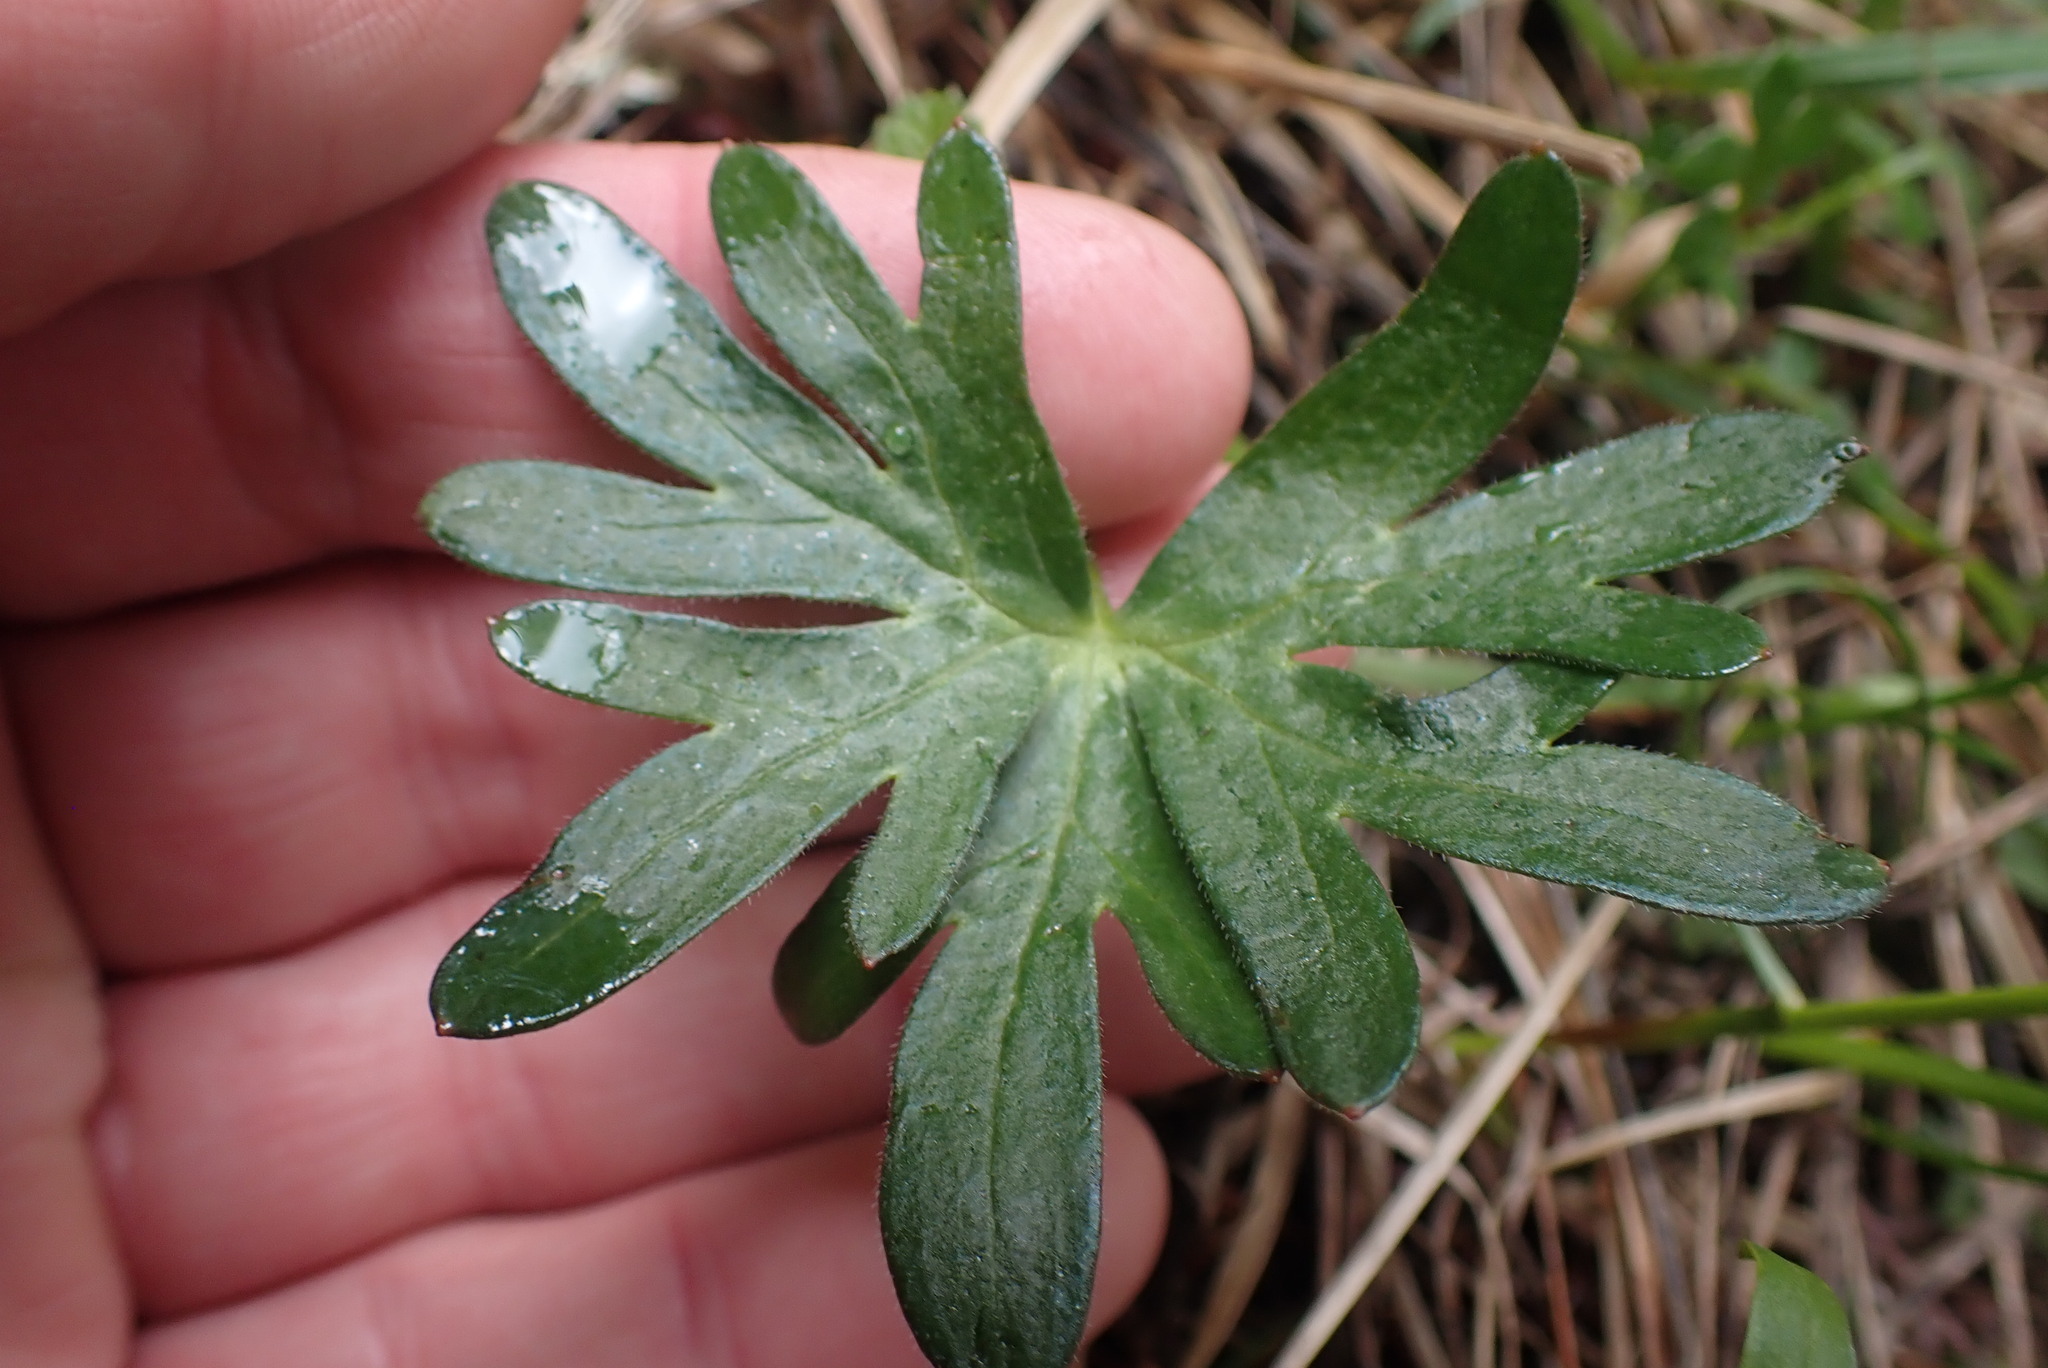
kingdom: Plantae
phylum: Tracheophyta
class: Magnoliopsida
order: Ranunculales
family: Ranunculaceae
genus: Delphinium
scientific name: Delphinium menziesii
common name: Menzies's larkspur
